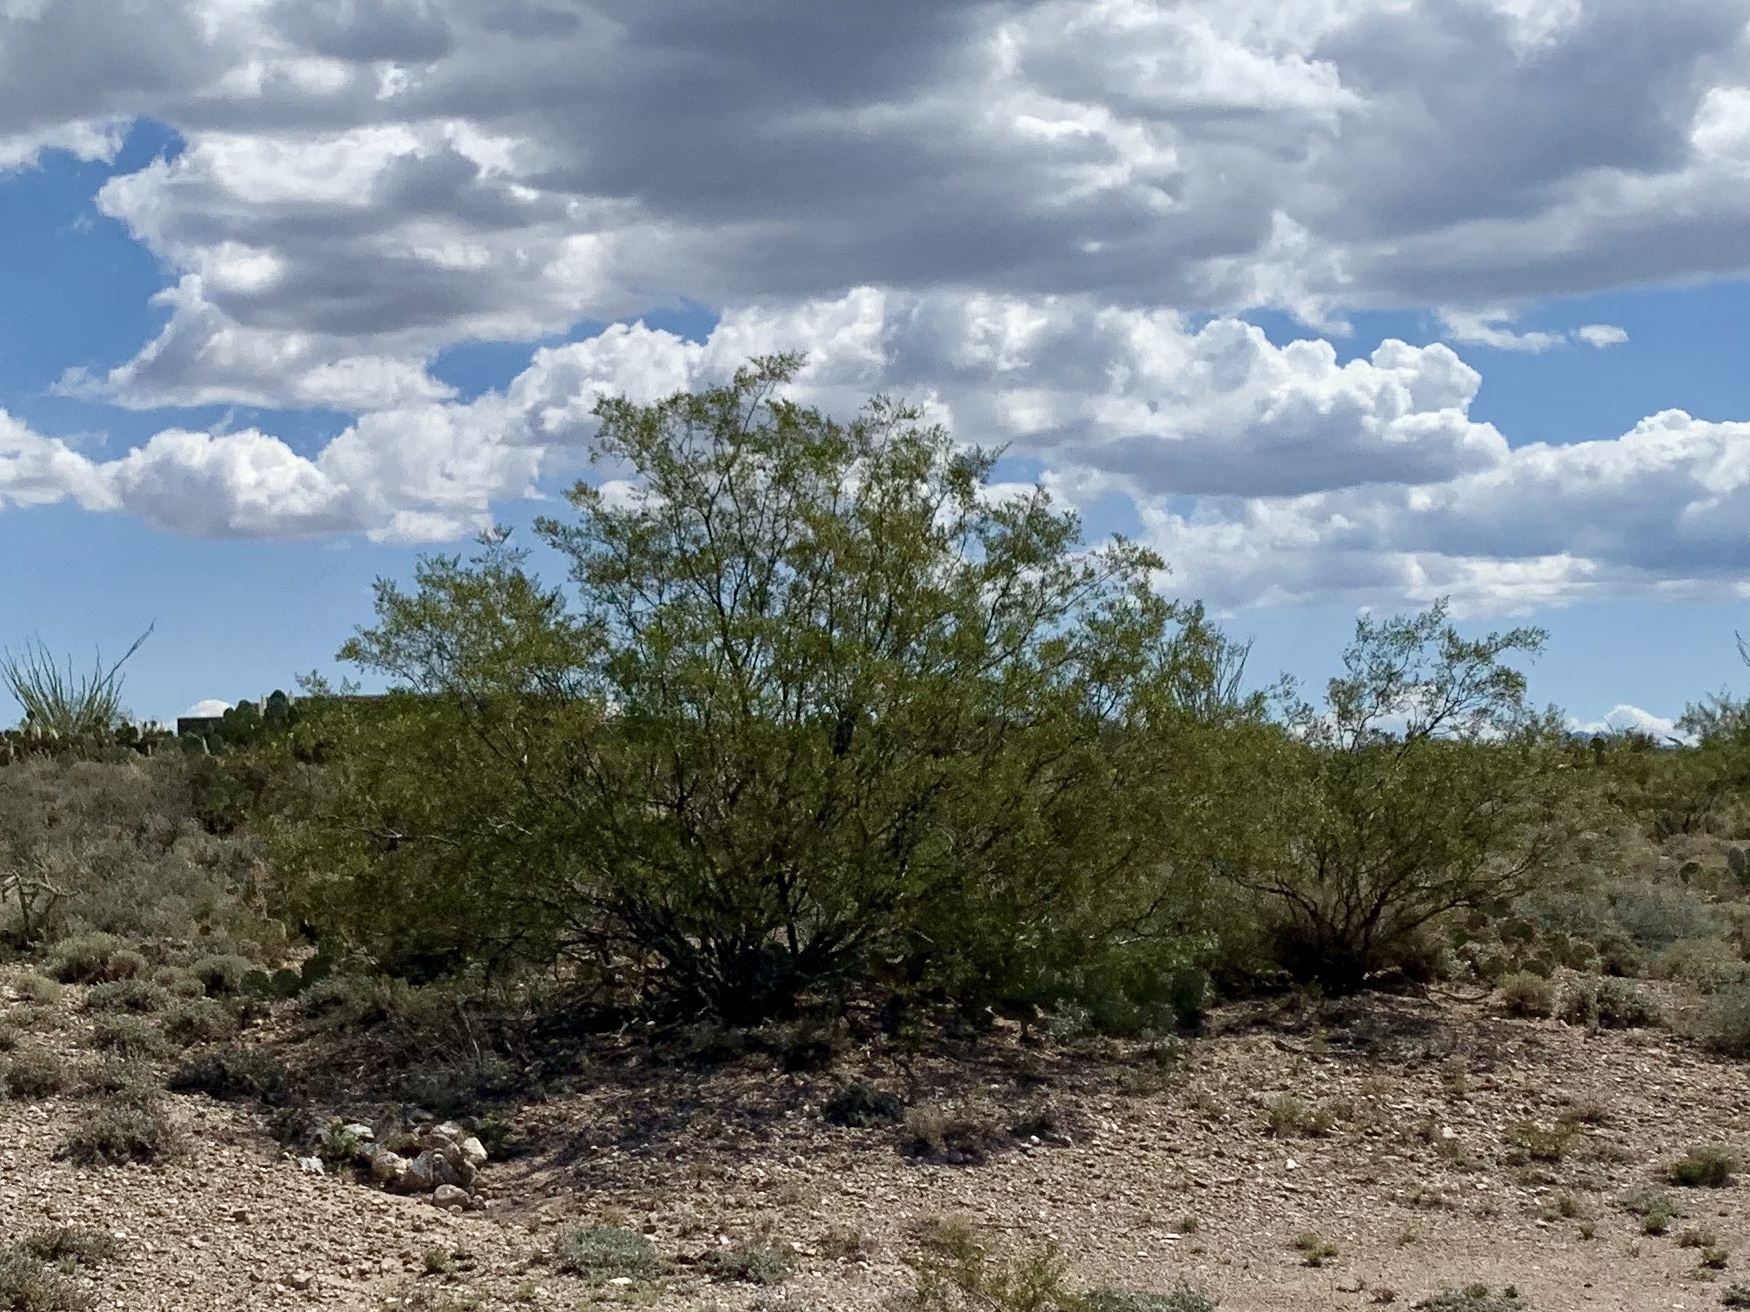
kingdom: Plantae
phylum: Tracheophyta
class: Magnoliopsida
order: Zygophyllales
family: Zygophyllaceae
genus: Larrea
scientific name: Larrea tridentata
